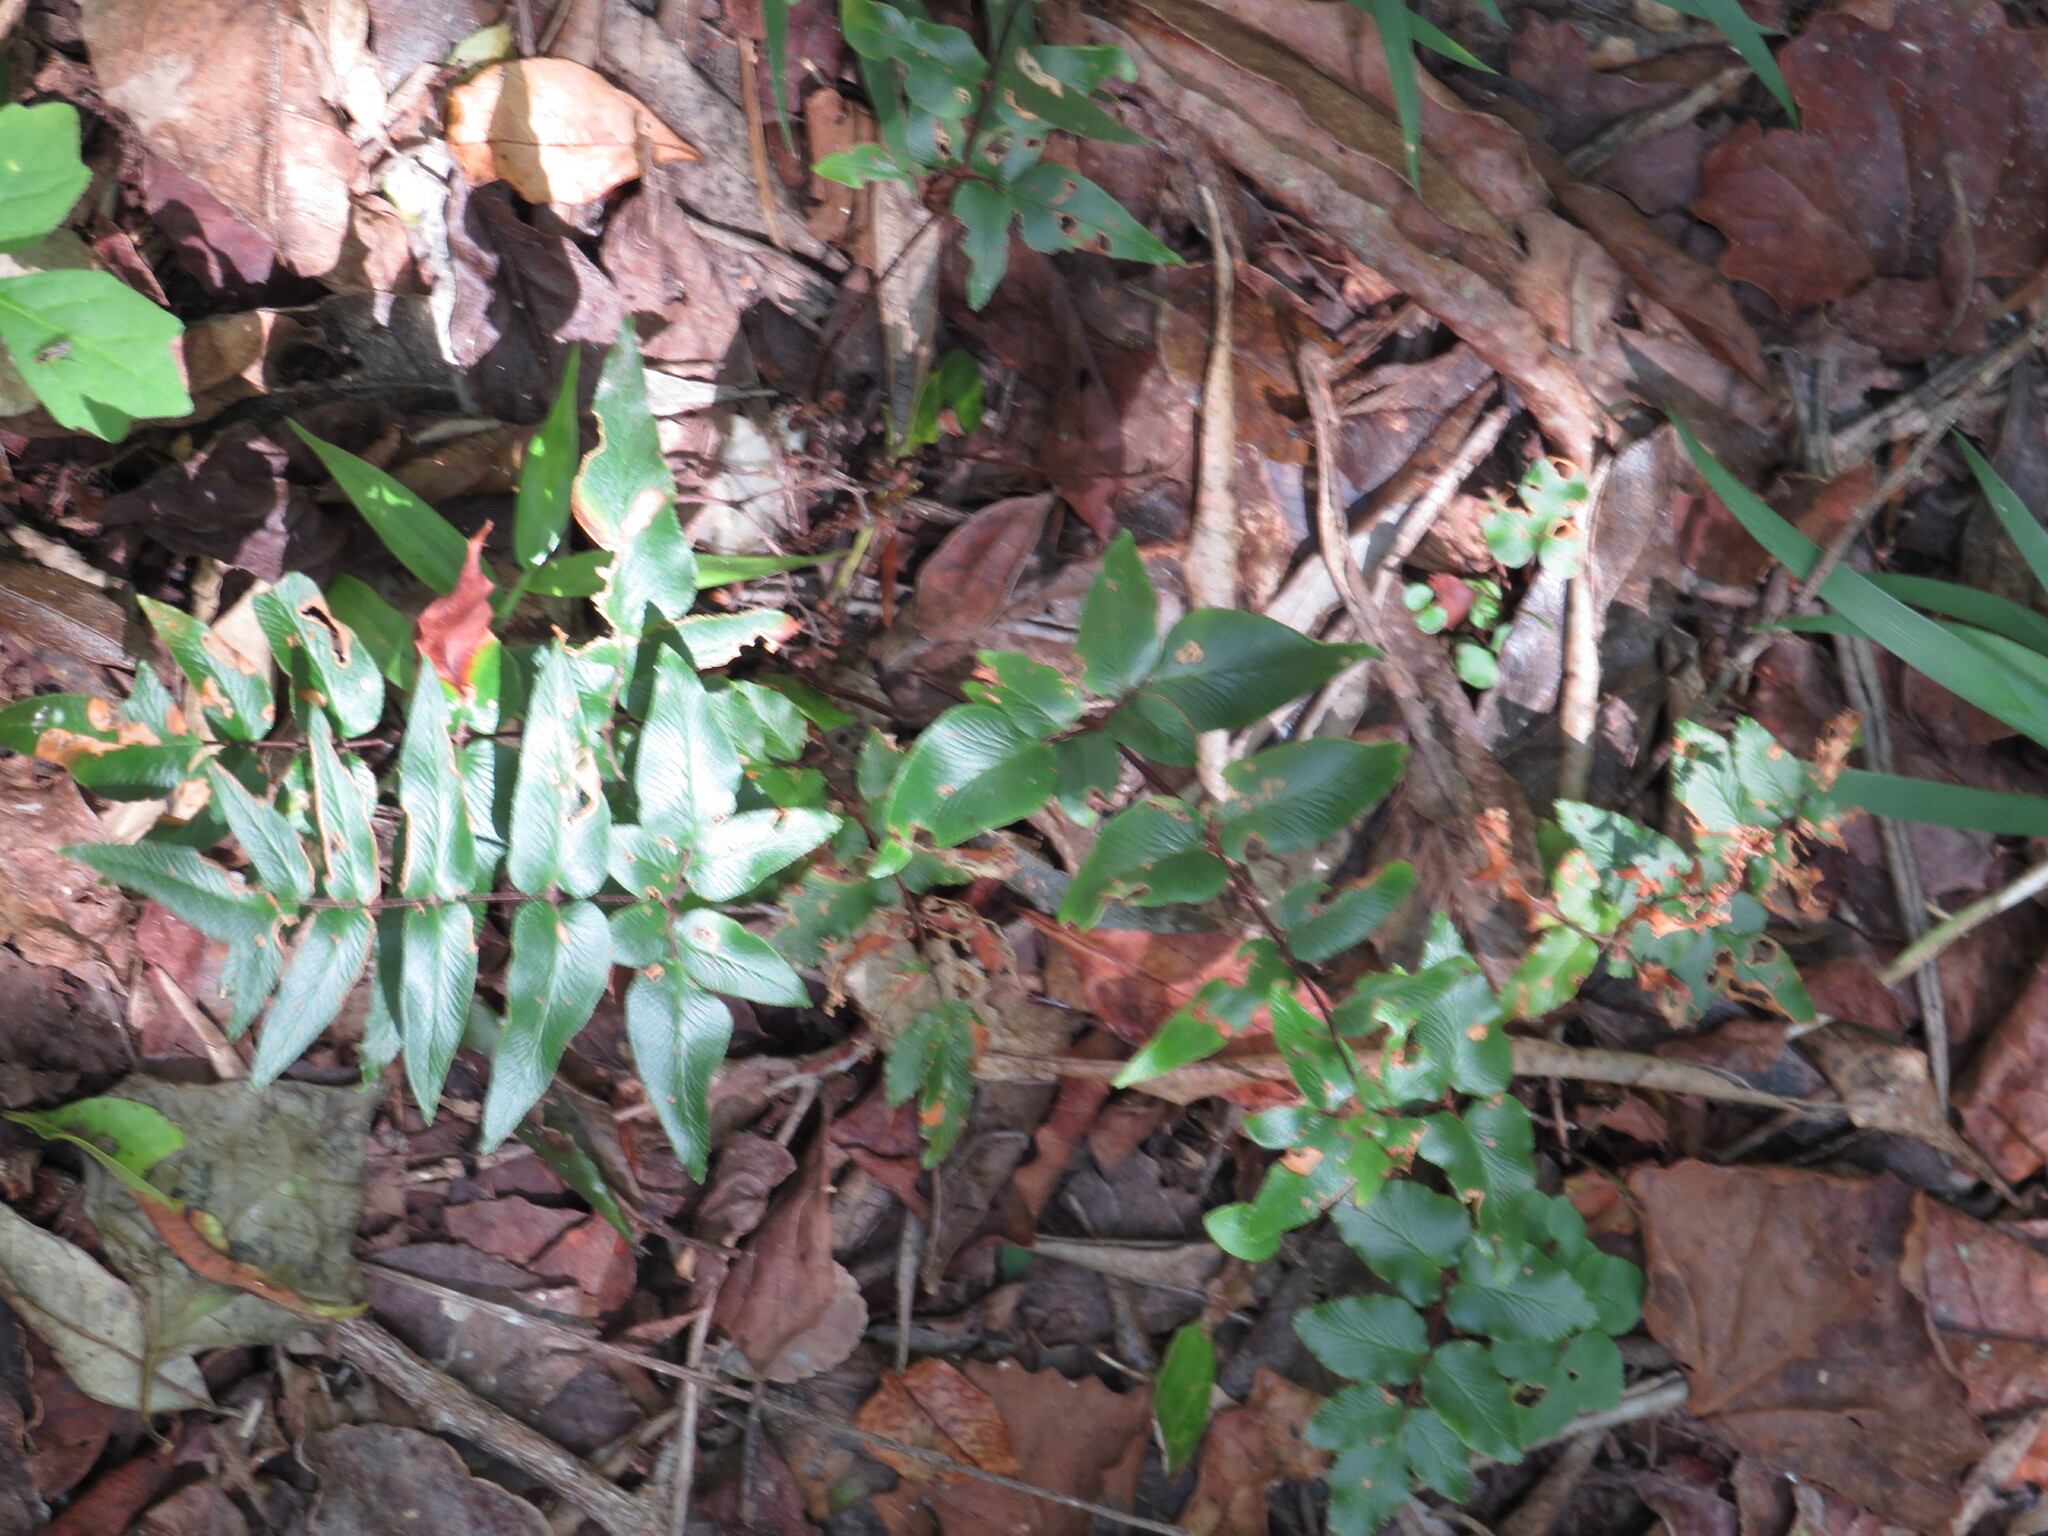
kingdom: Plantae
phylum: Tracheophyta
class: Polypodiopsida
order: Polypodiales
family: Pteridaceae
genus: Cheilanthes
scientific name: Cheilanthes viridis
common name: Green cliffbrake
